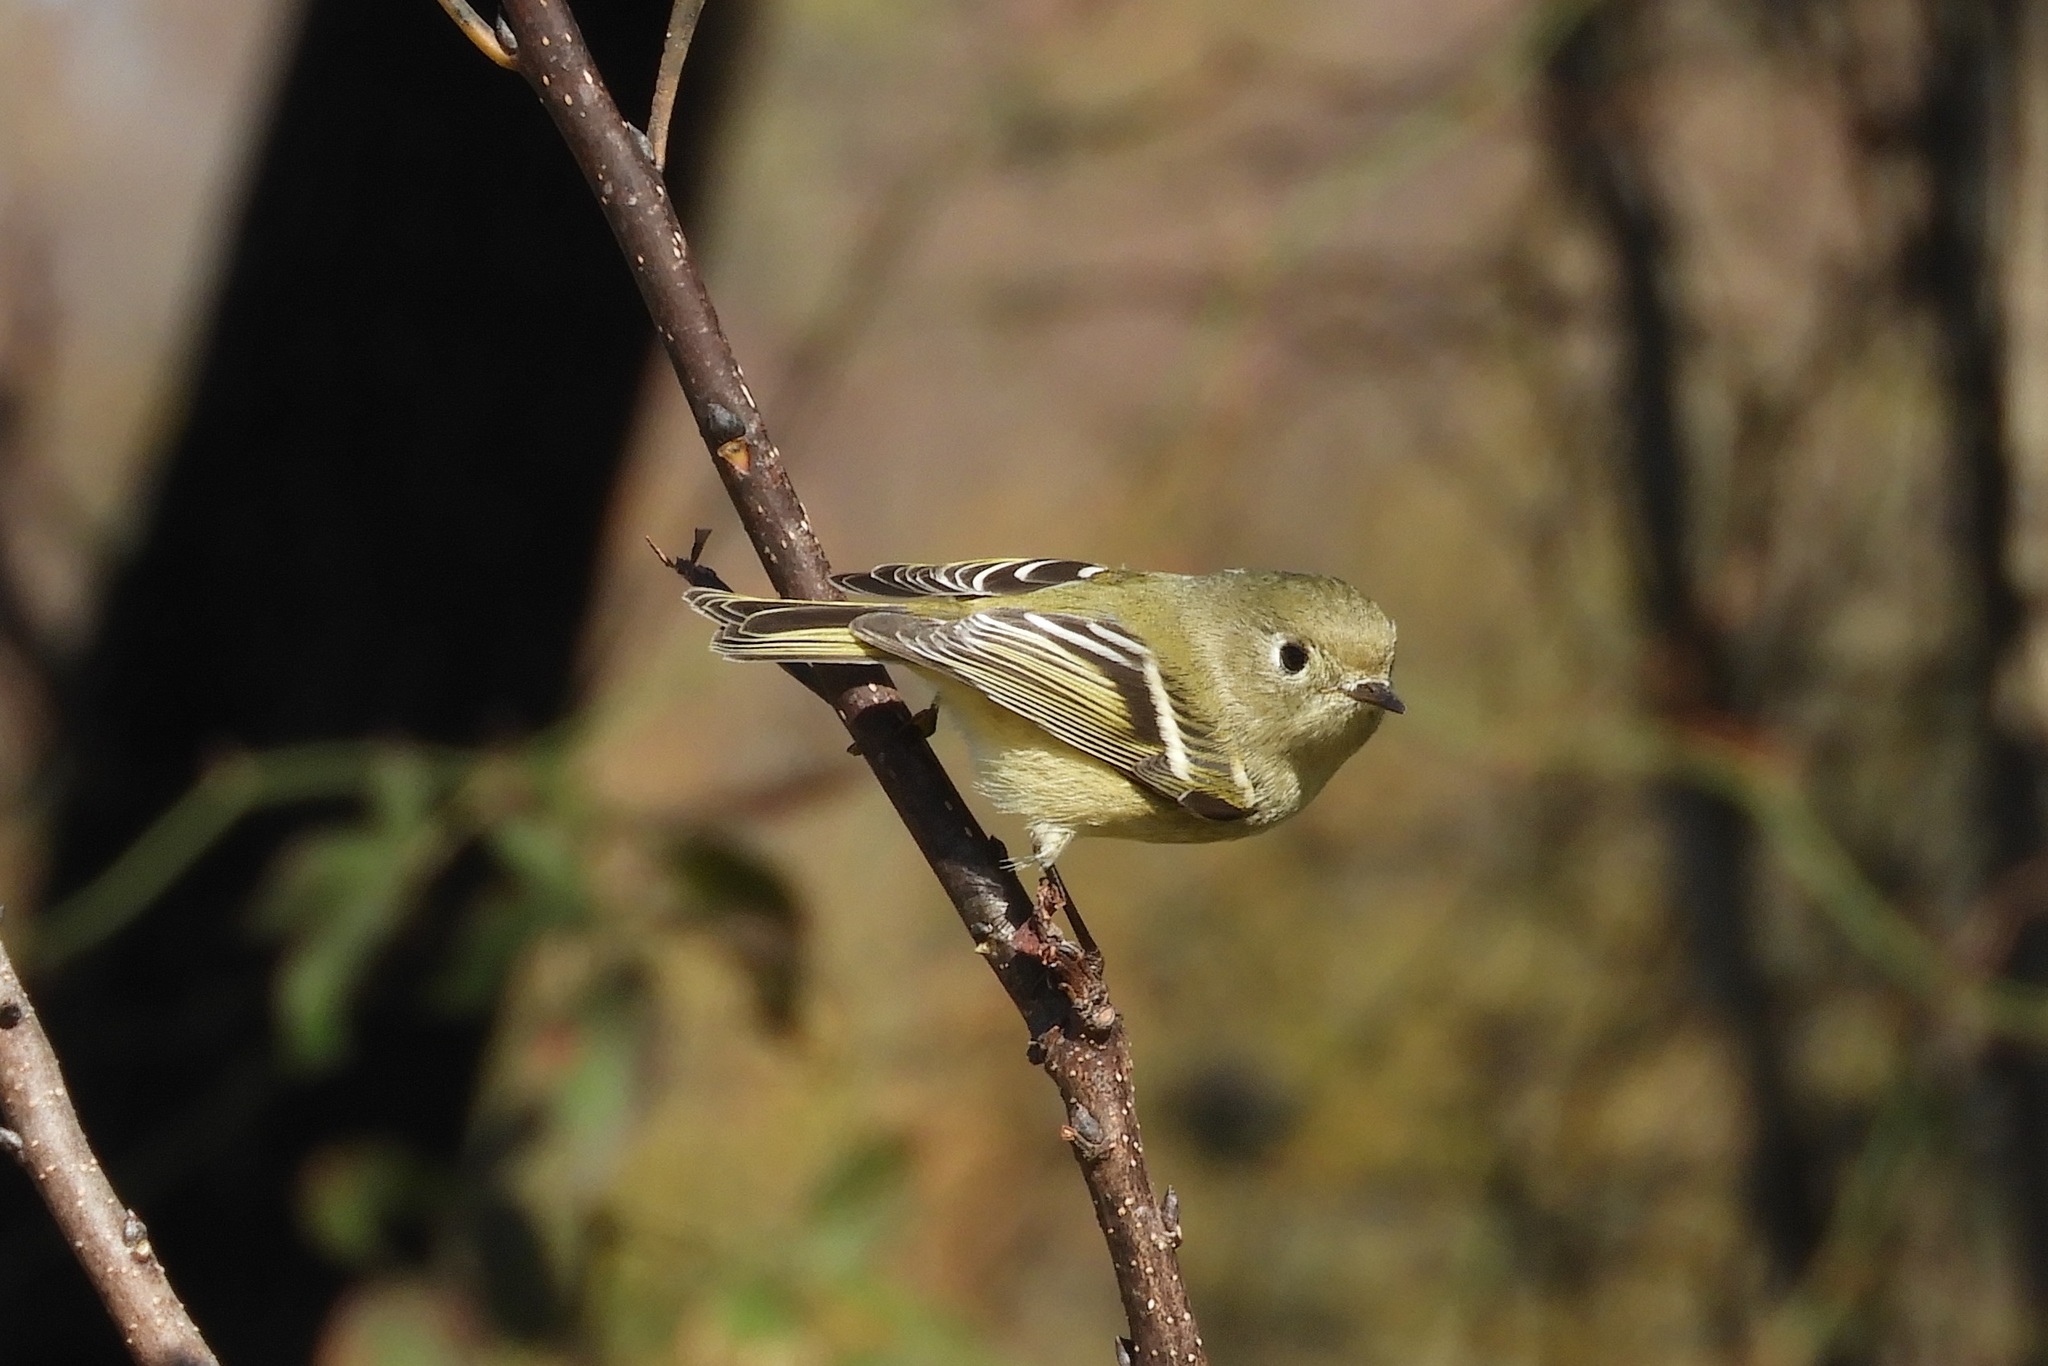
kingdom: Animalia
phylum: Chordata
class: Aves
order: Passeriformes
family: Regulidae
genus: Regulus
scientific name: Regulus calendula
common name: Ruby-crowned kinglet
